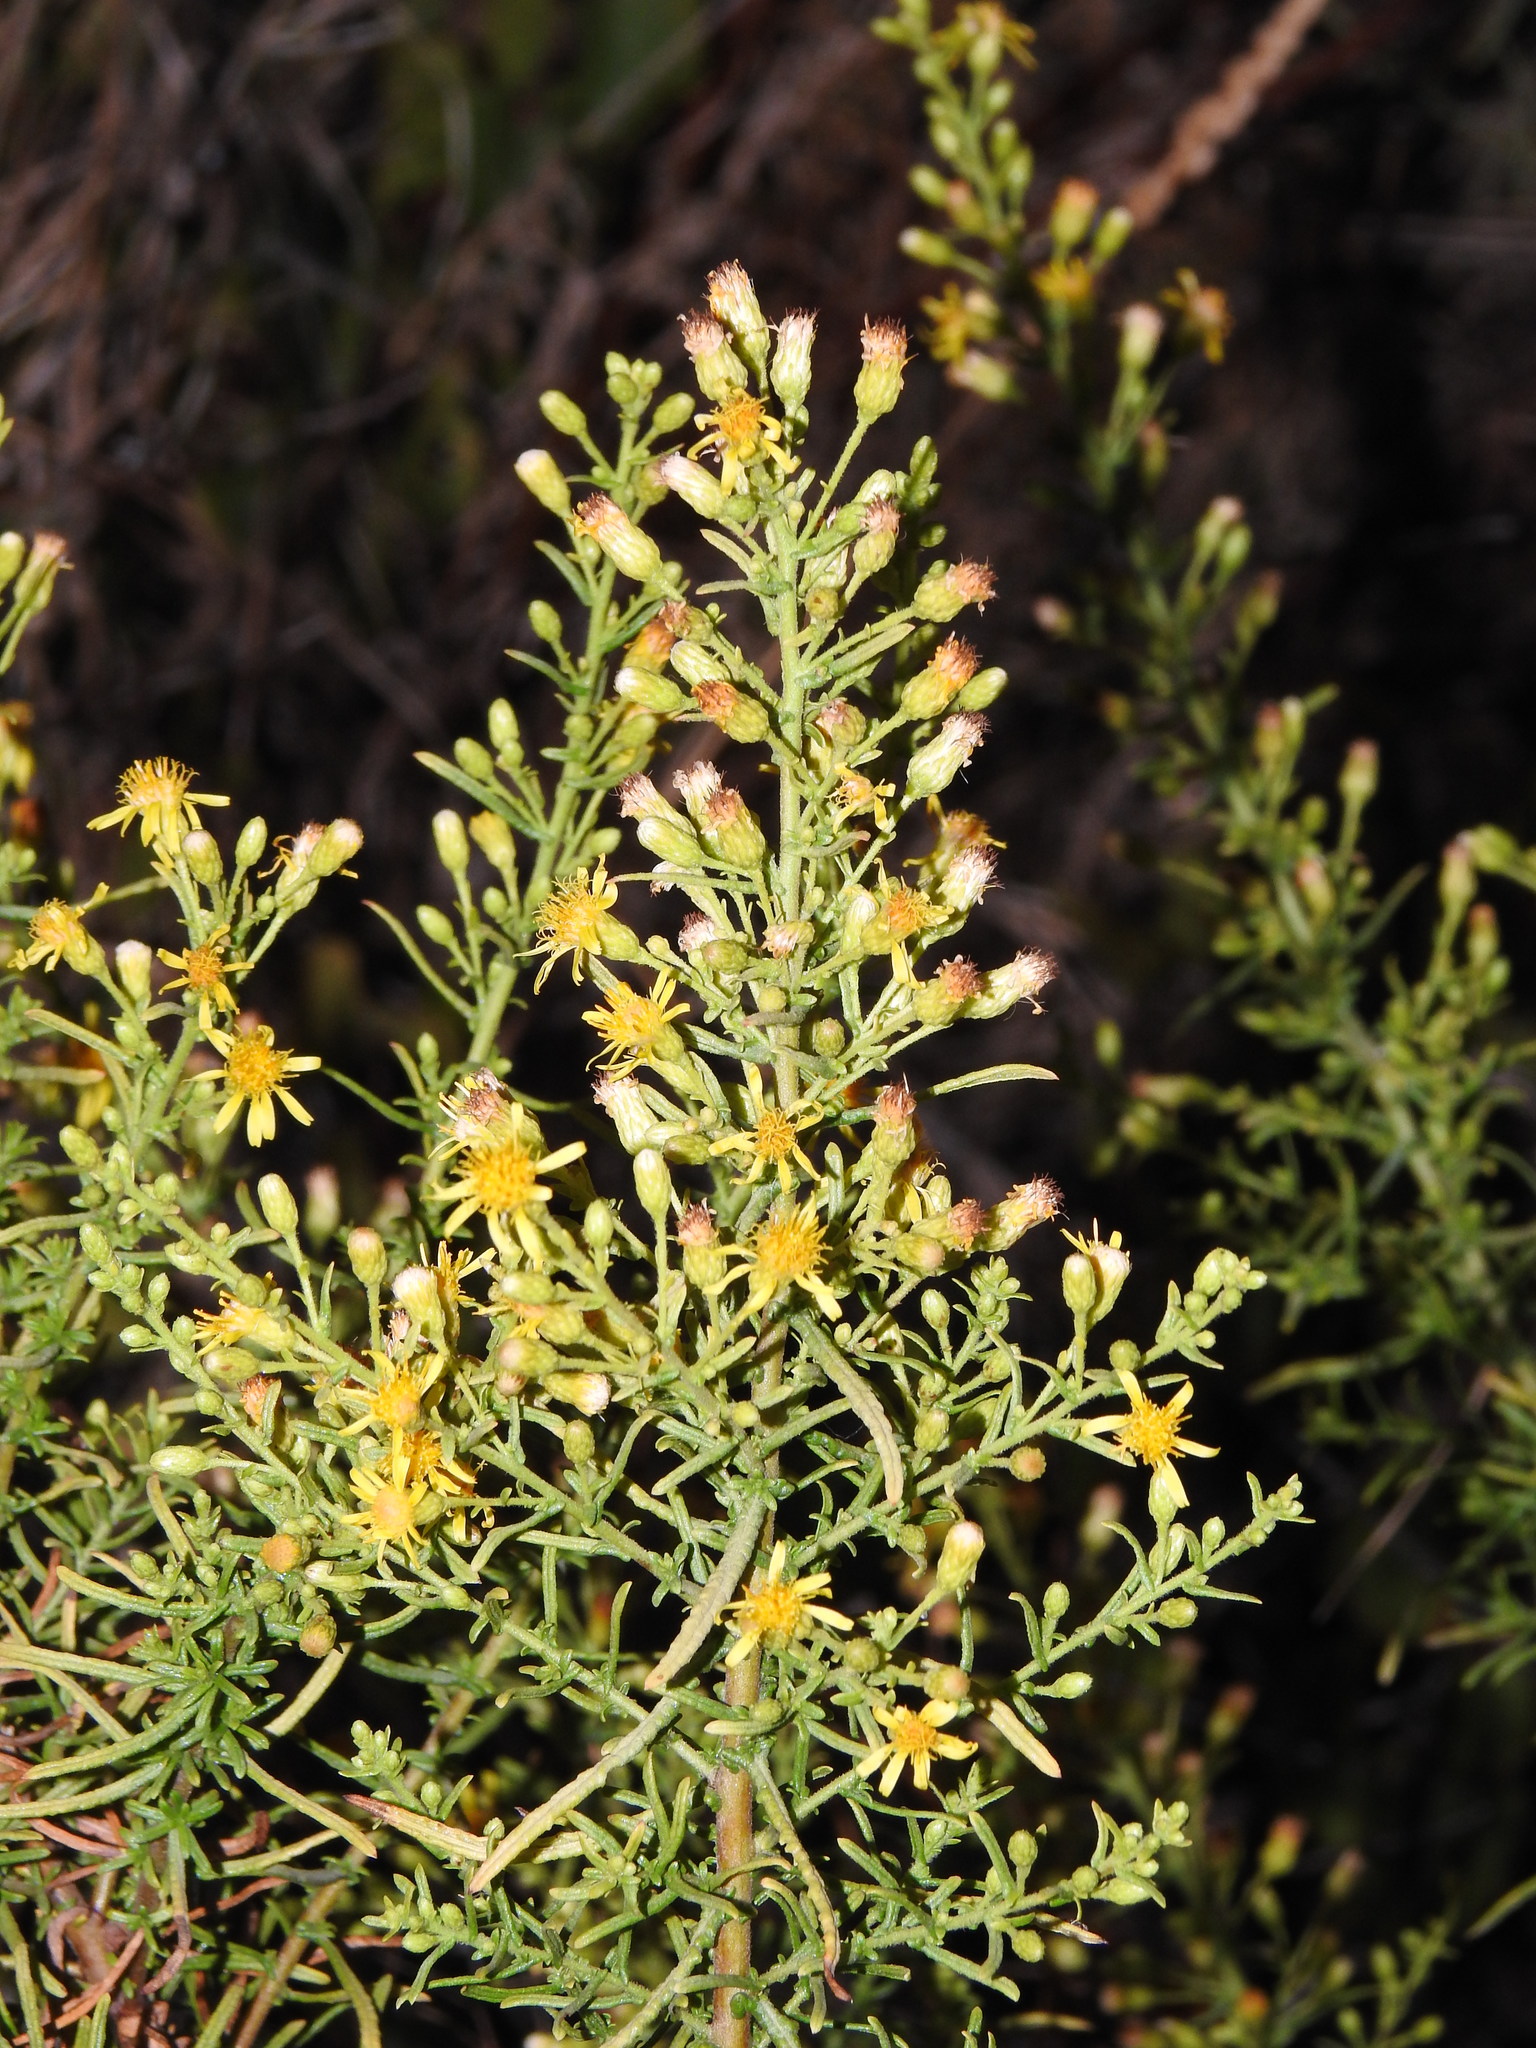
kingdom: Plantae
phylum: Tracheophyta
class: Magnoliopsida
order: Asterales
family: Asteraceae
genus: Dittrichia
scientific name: Dittrichia viscosa
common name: Woody fleabane
